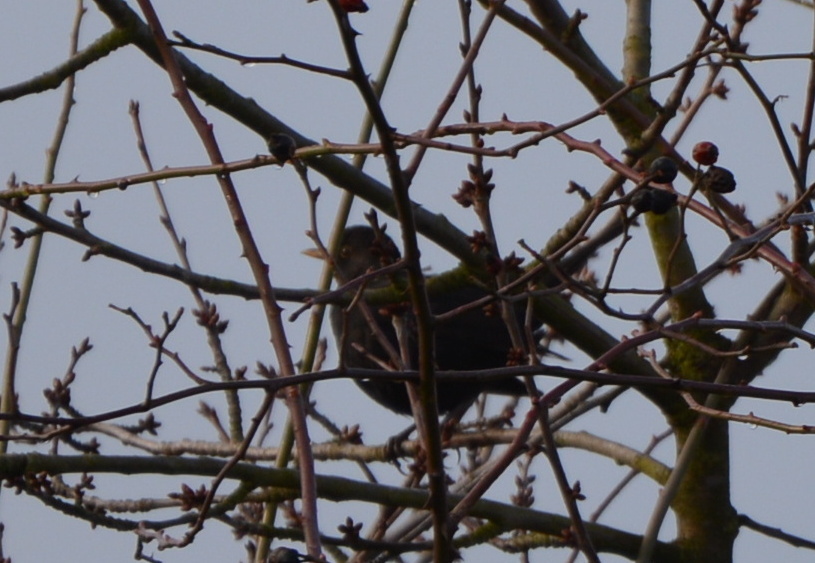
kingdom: Animalia
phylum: Chordata
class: Aves
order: Passeriformes
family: Turdidae
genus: Turdus
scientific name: Turdus merula
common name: Common blackbird
